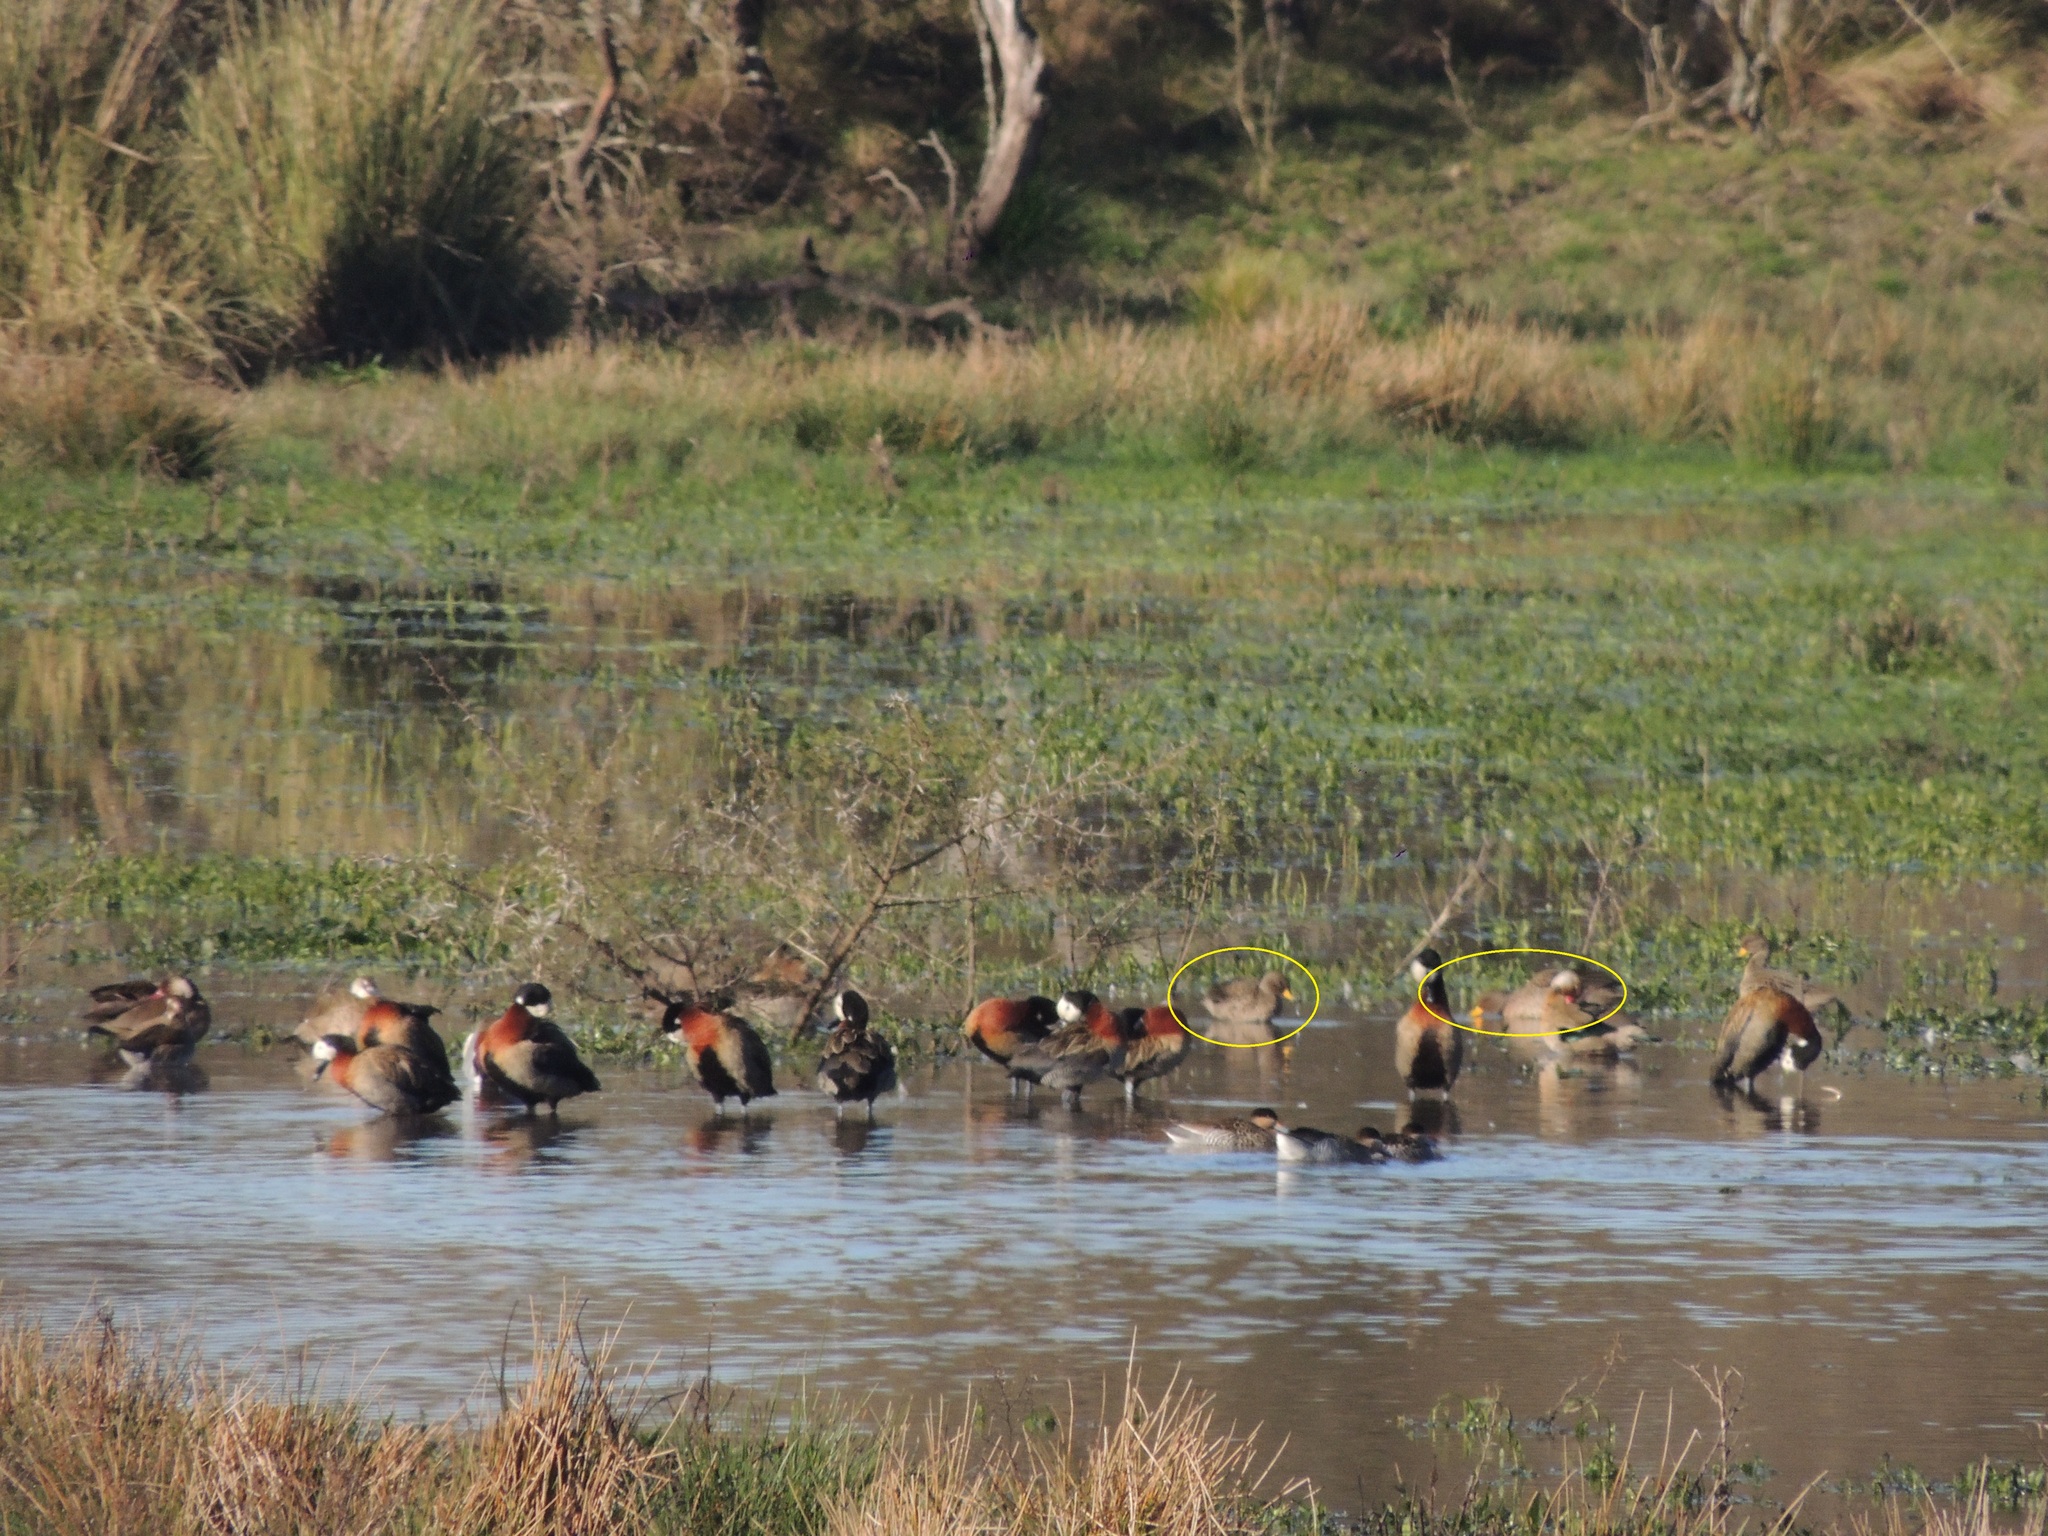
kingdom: Animalia
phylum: Chordata
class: Aves
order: Anseriformes
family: Anatidae
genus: Anas
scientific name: Anas flavirostris
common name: Yellow-billed teal
